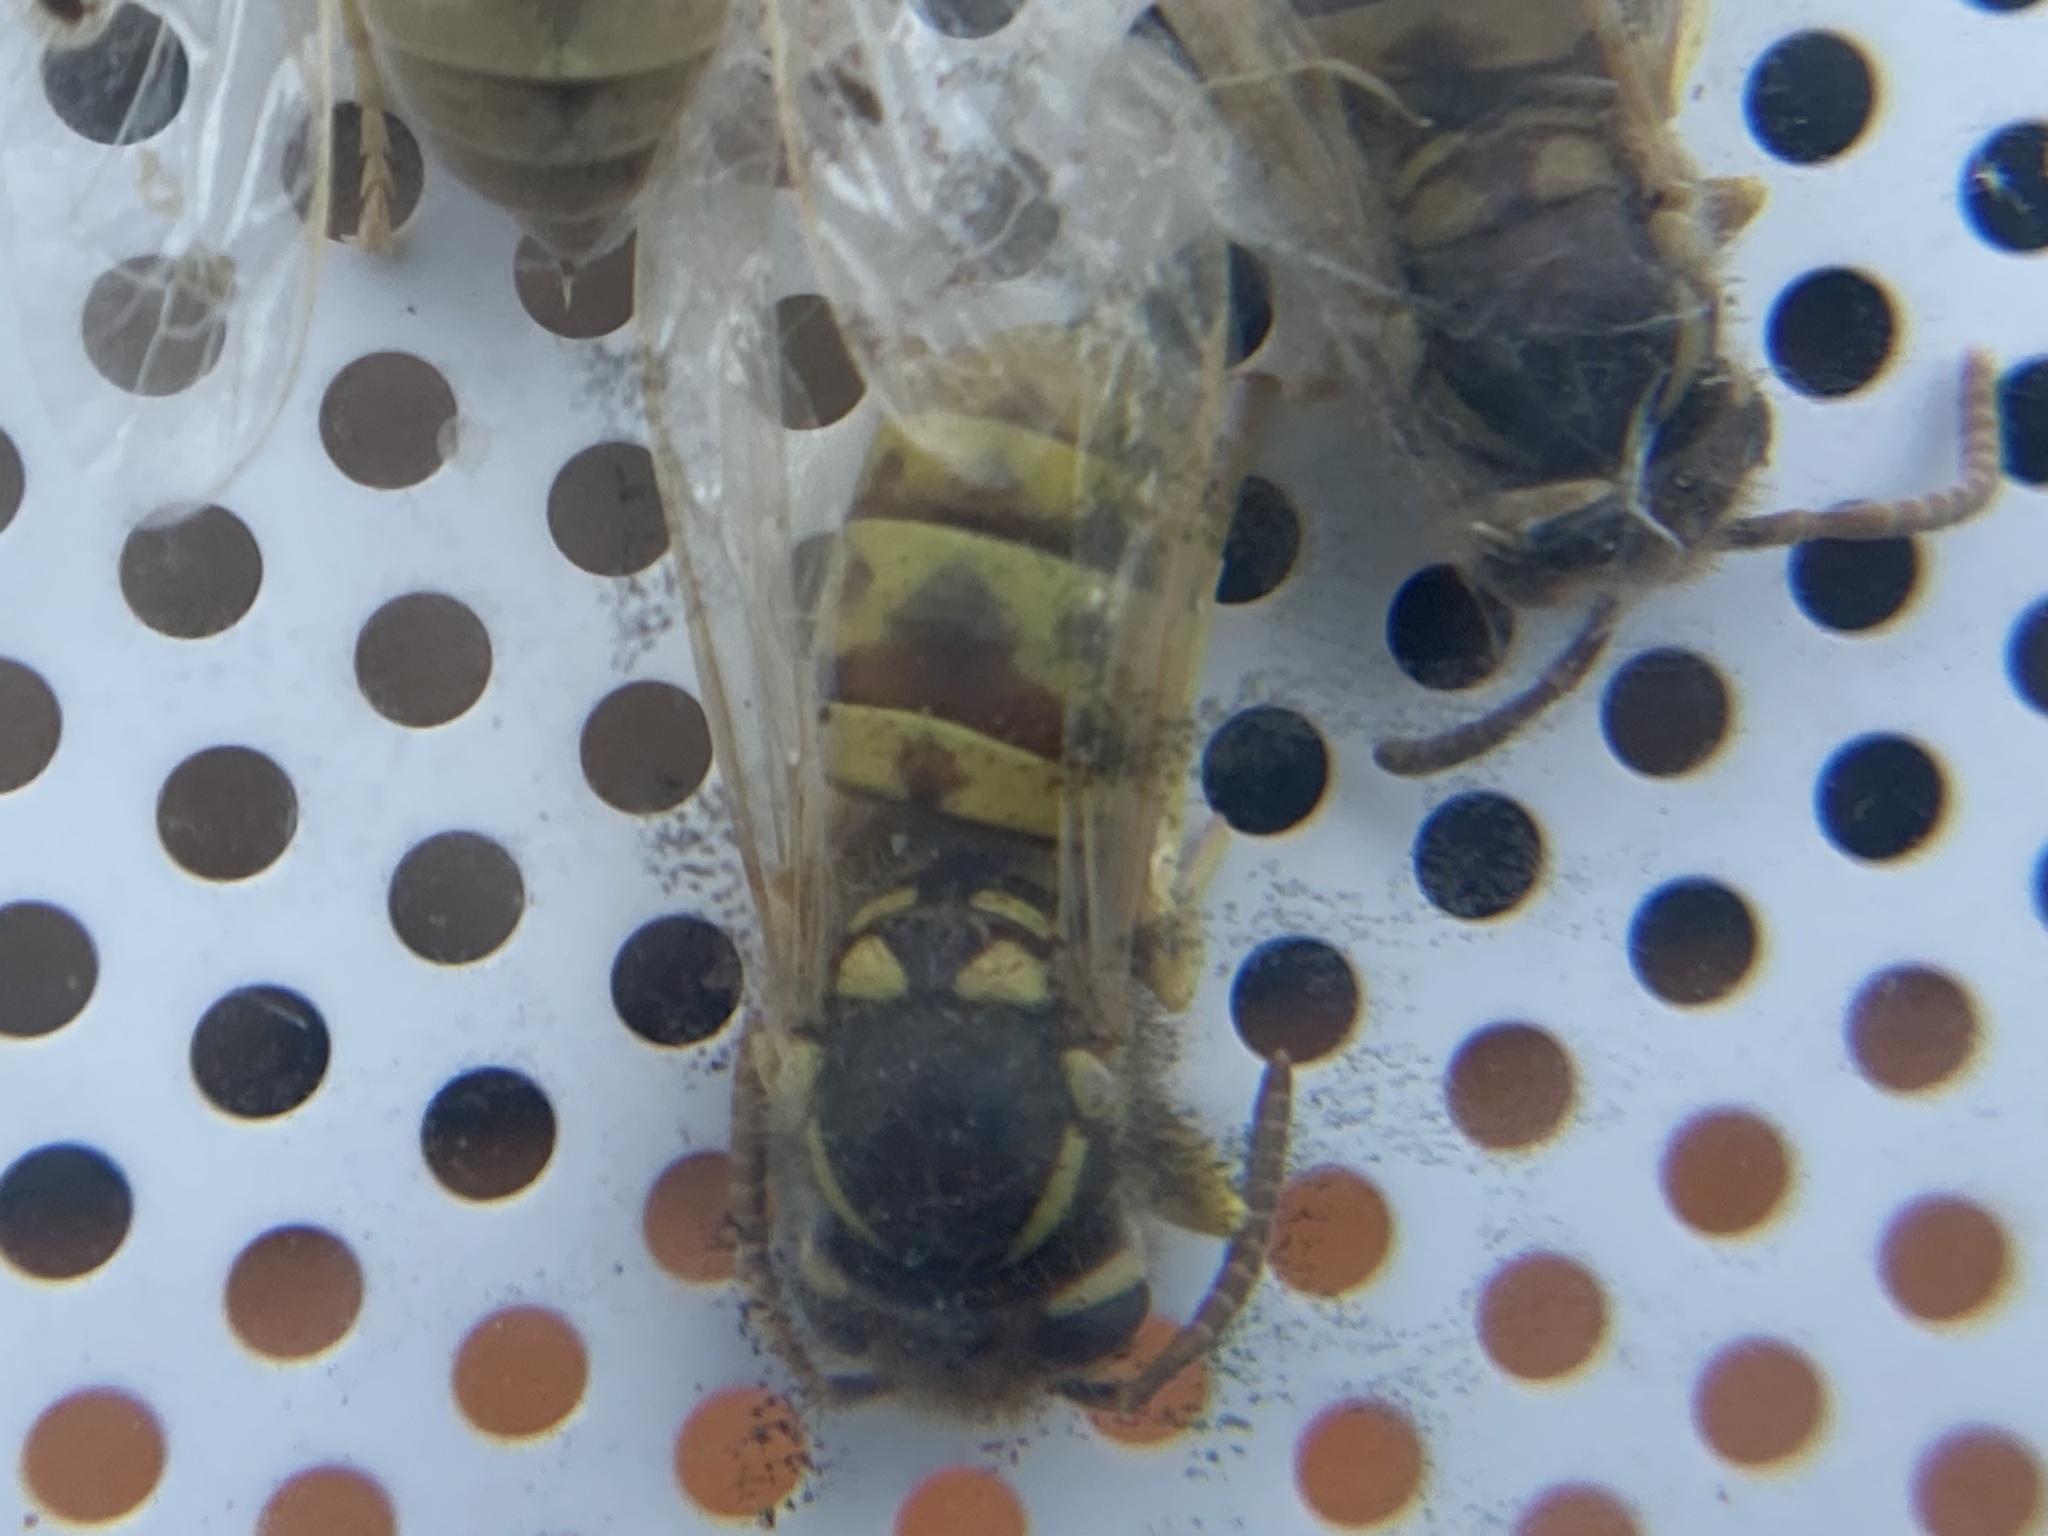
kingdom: Animalia
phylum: Arthropoda
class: Insecta
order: Hymenoptera
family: Vespidae
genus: Vespula
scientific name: Vespula germanica
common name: German wasp
